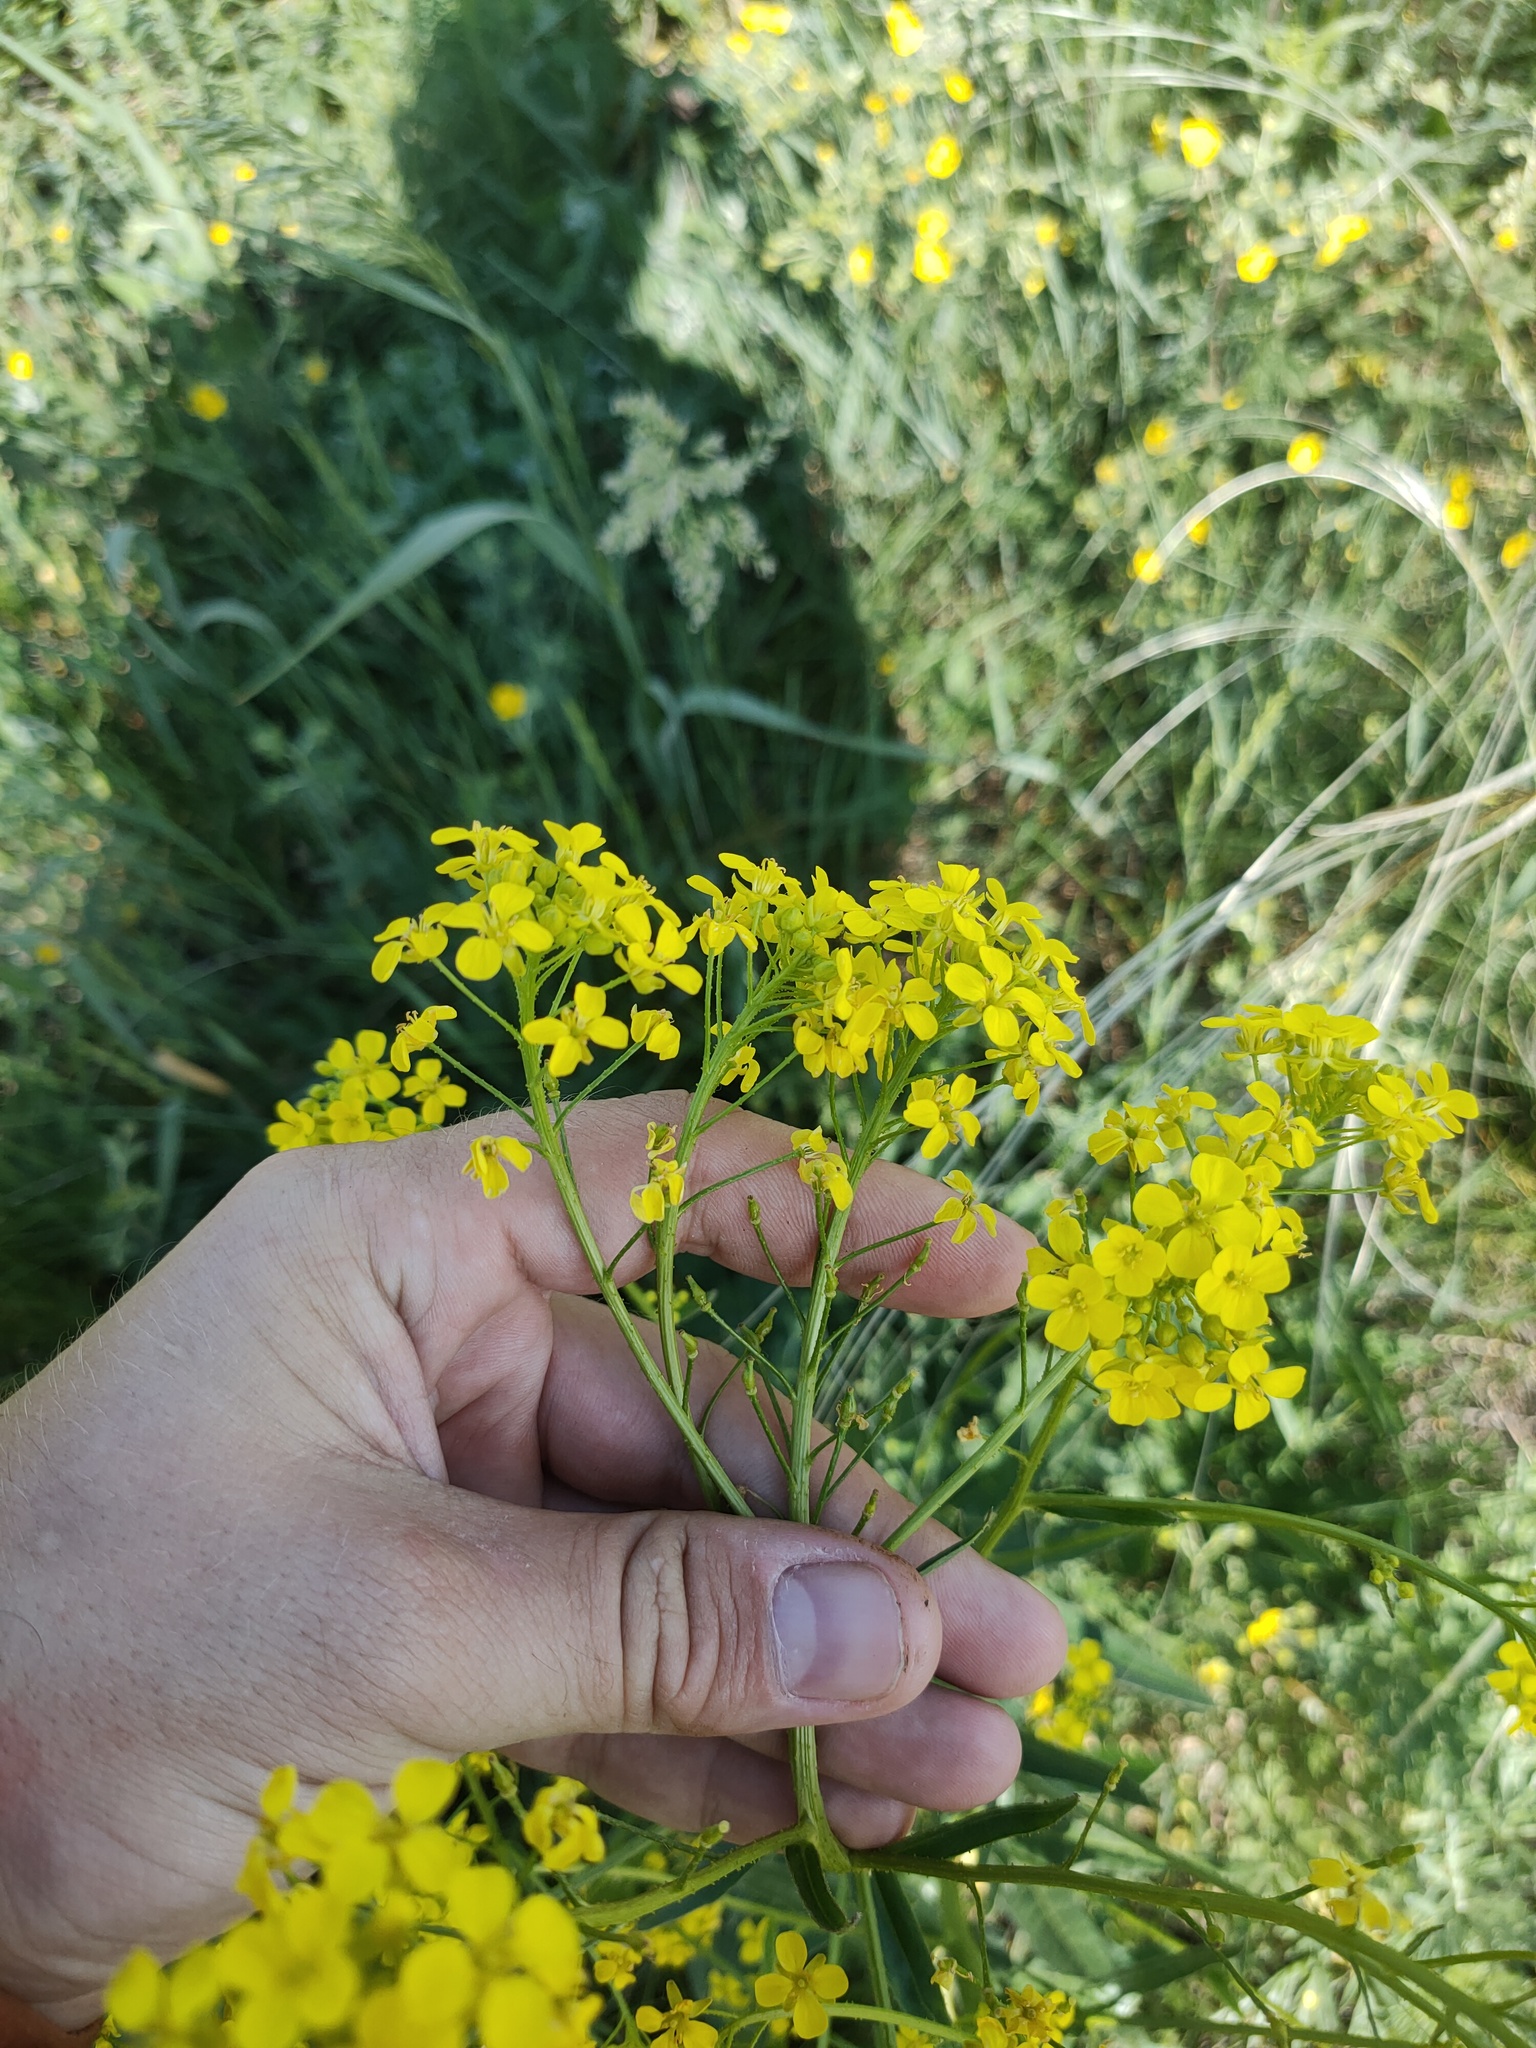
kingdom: Plantae
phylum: Tracheophyta
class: Magnoliopsida
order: Brassicales
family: Brassicaceae
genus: Bunias
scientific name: Bunias orientalis
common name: Warty-cabbage
